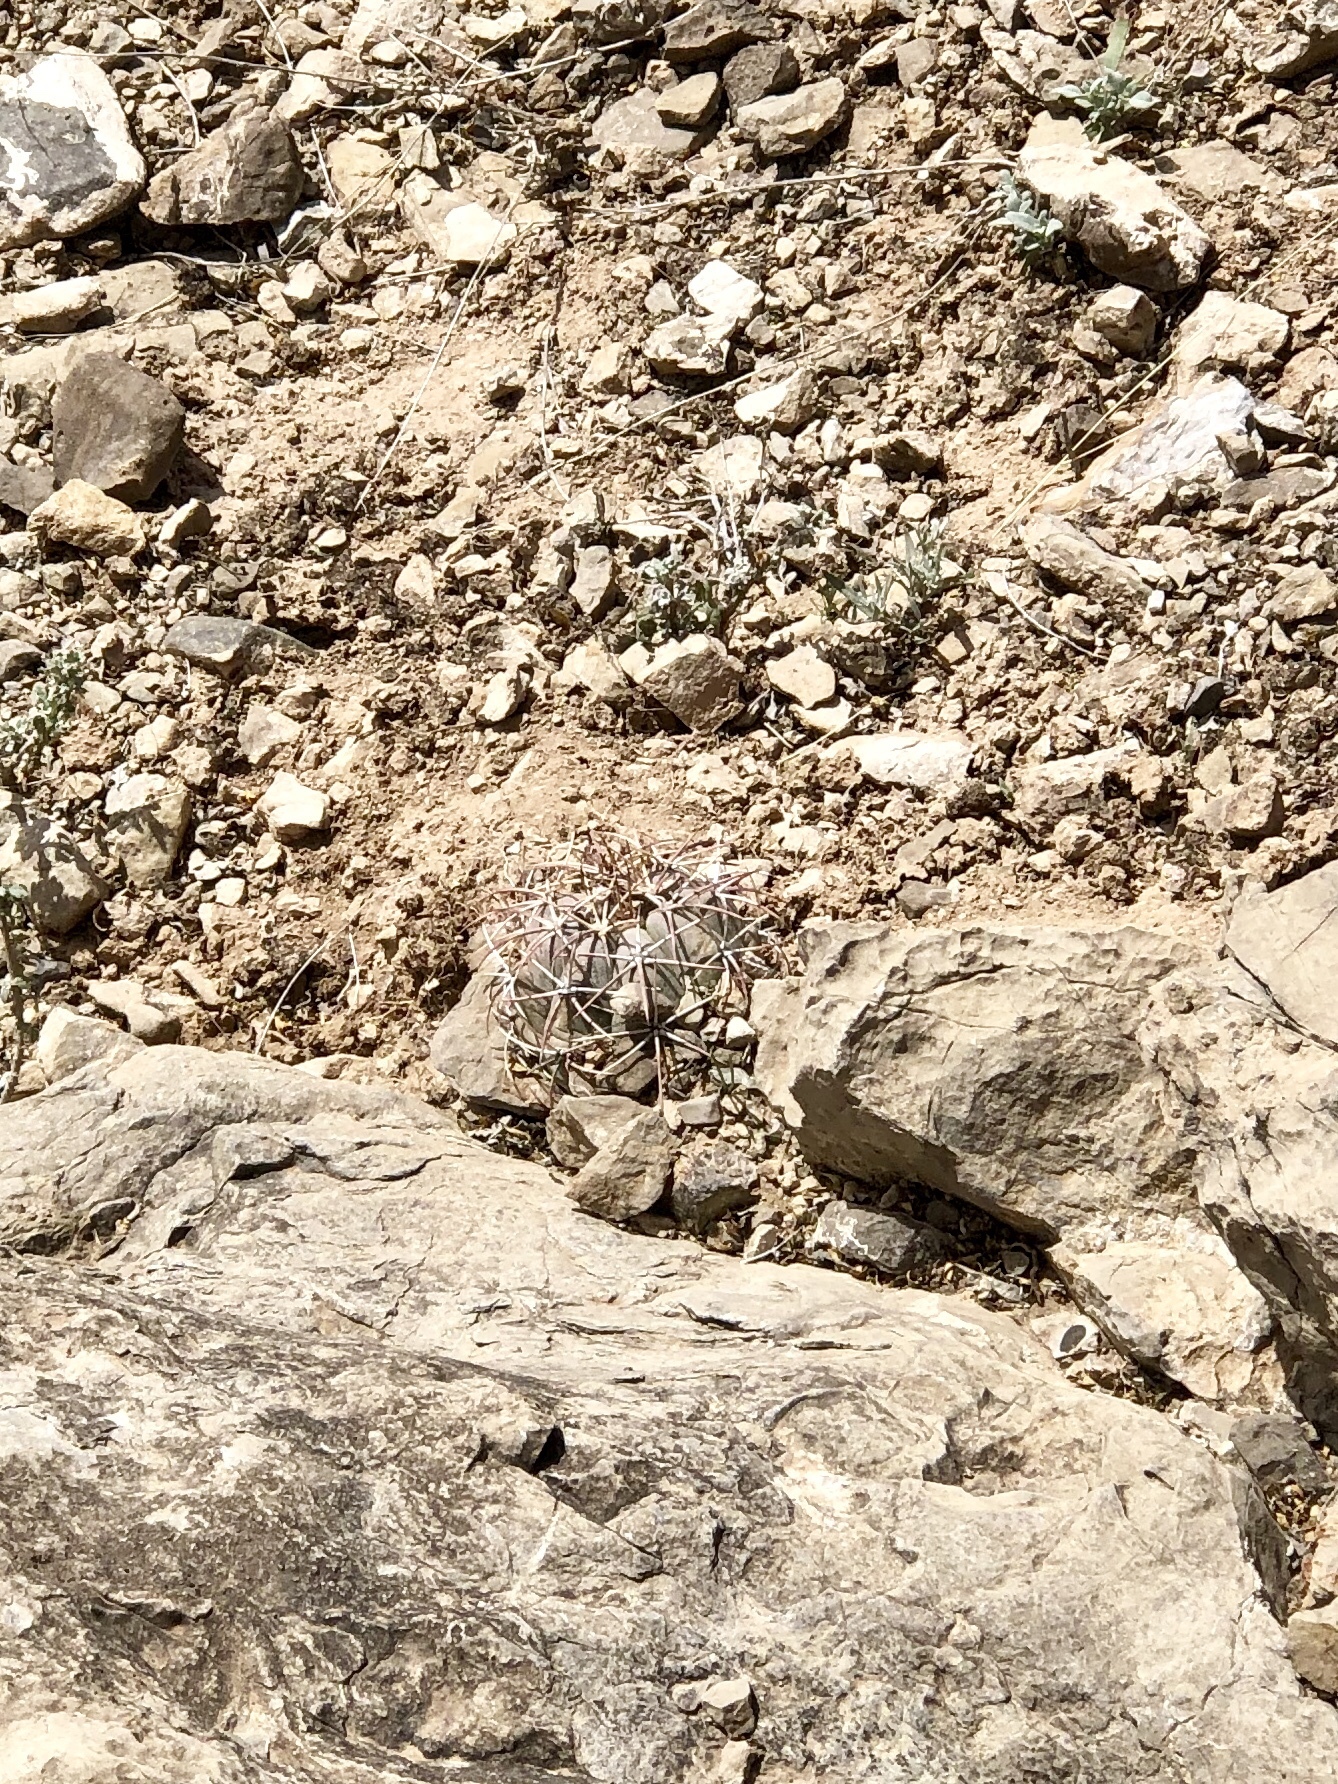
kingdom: Plantae
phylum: Tracheophyta
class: Magnoliopsida
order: Caryophyllales
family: Cactaceae
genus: Echinocactus
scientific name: Echinocactus horizonthalonius
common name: Devilshead
